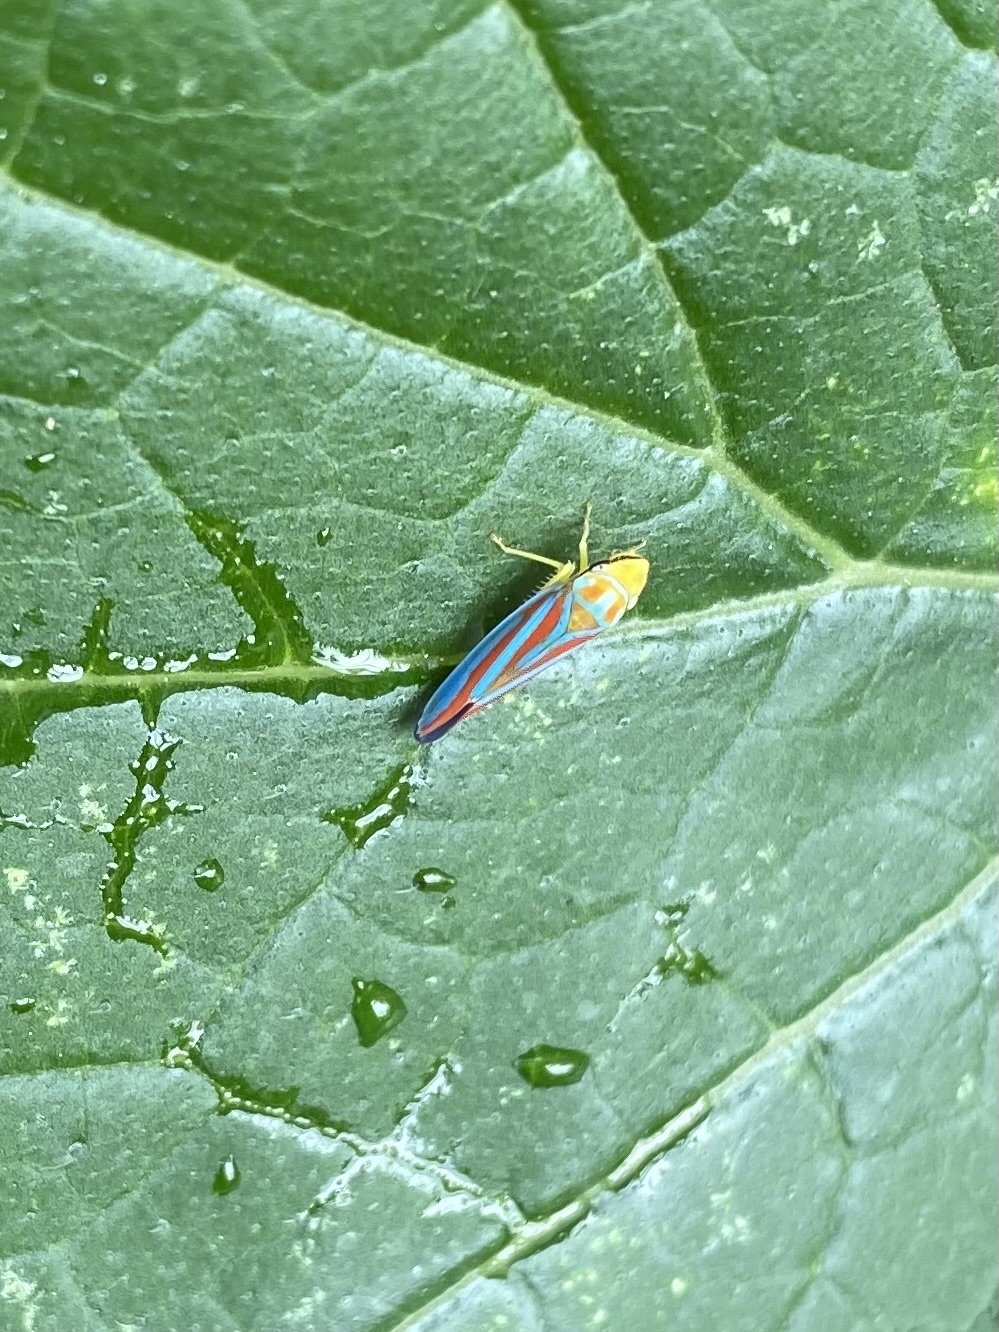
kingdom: Animalia
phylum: Arthropoda
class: Insecta
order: Hemiptera
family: Cicadellidae
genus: Graphocephala
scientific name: Graphocephala coccinea
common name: Candy-striped leafhopper
